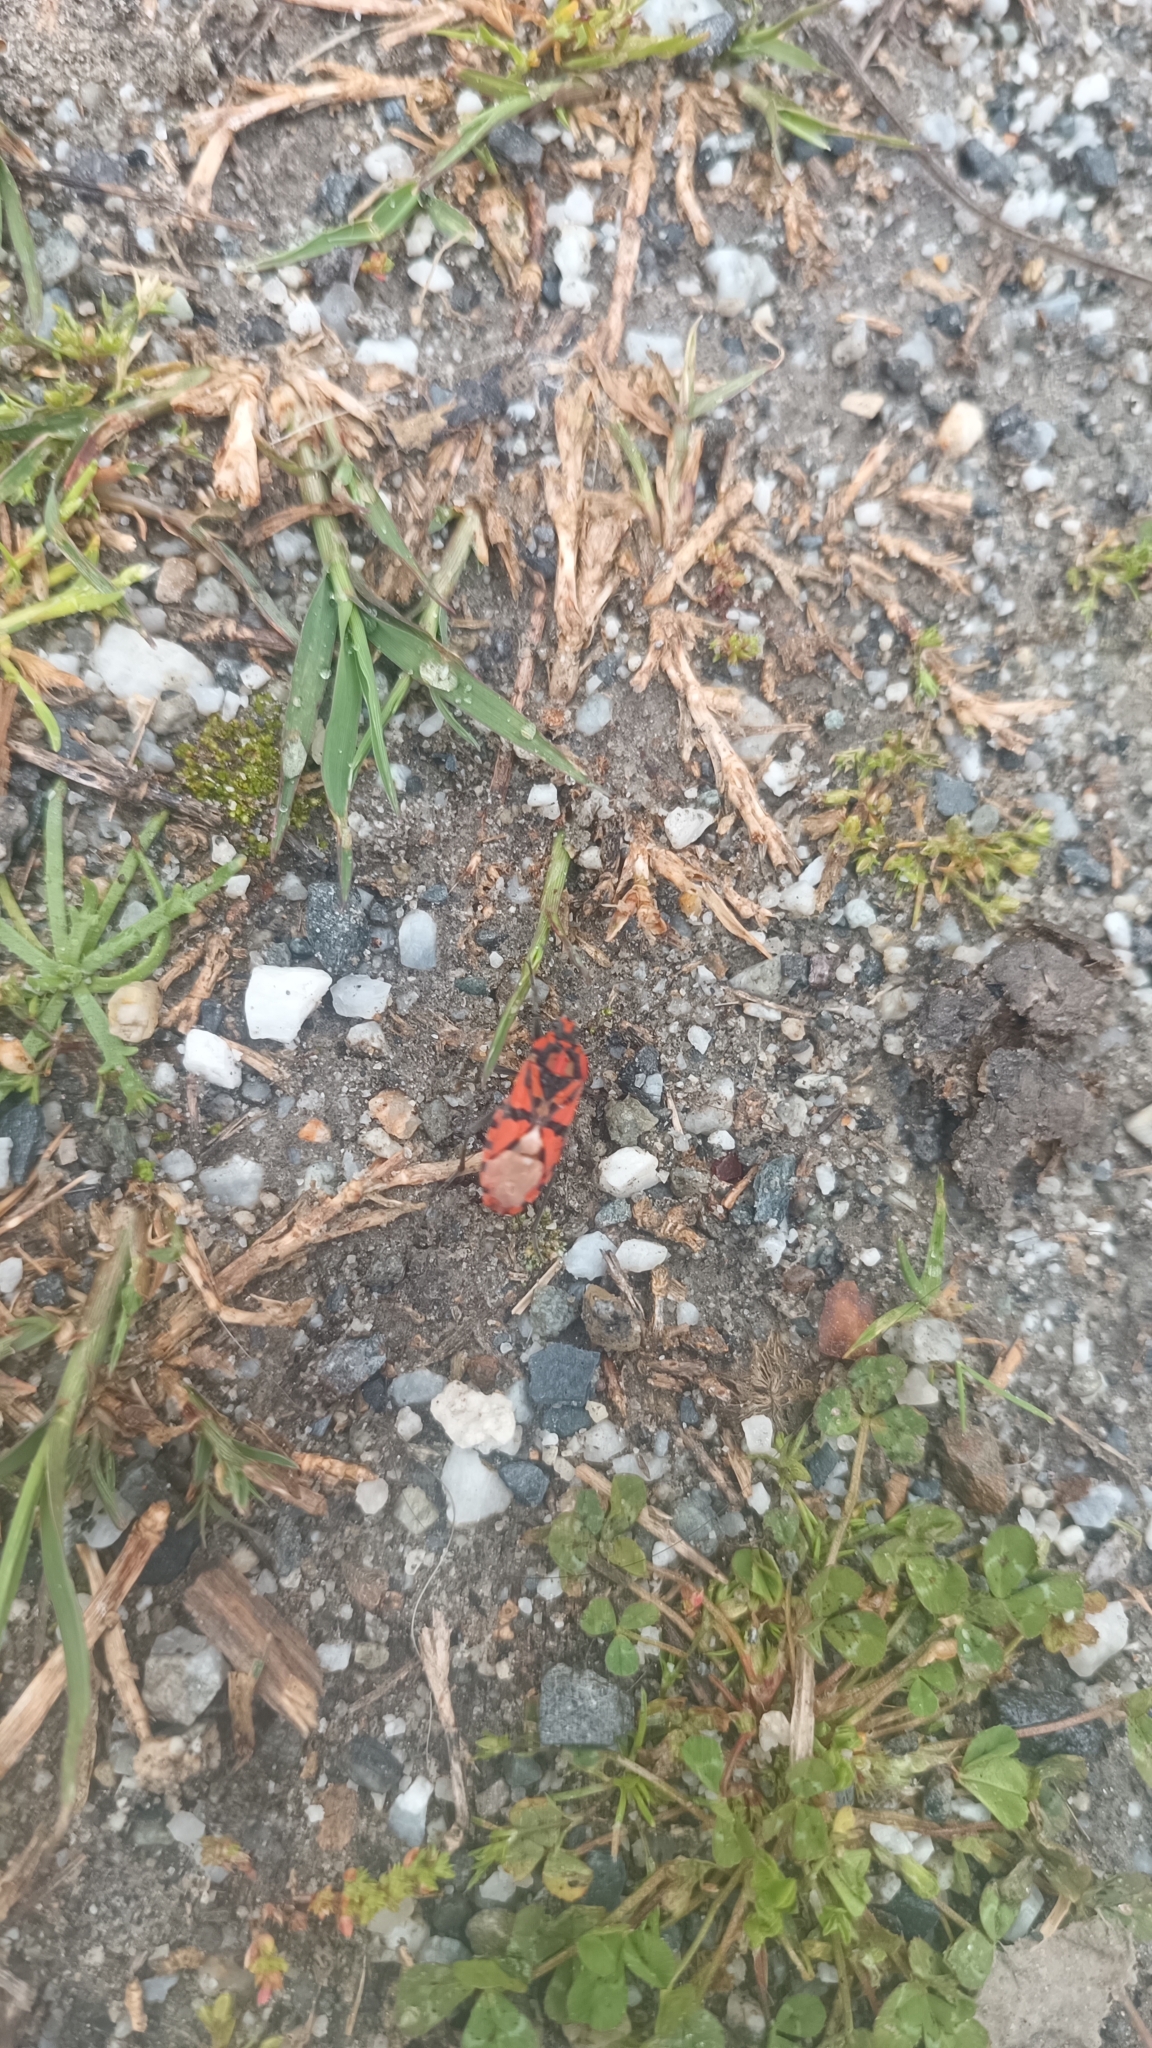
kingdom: Animalia
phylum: Arthropoda
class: Insecta
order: Hemiptera
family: Lygaeidae
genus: Spilostethus
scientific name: Spilostethus pandurus
